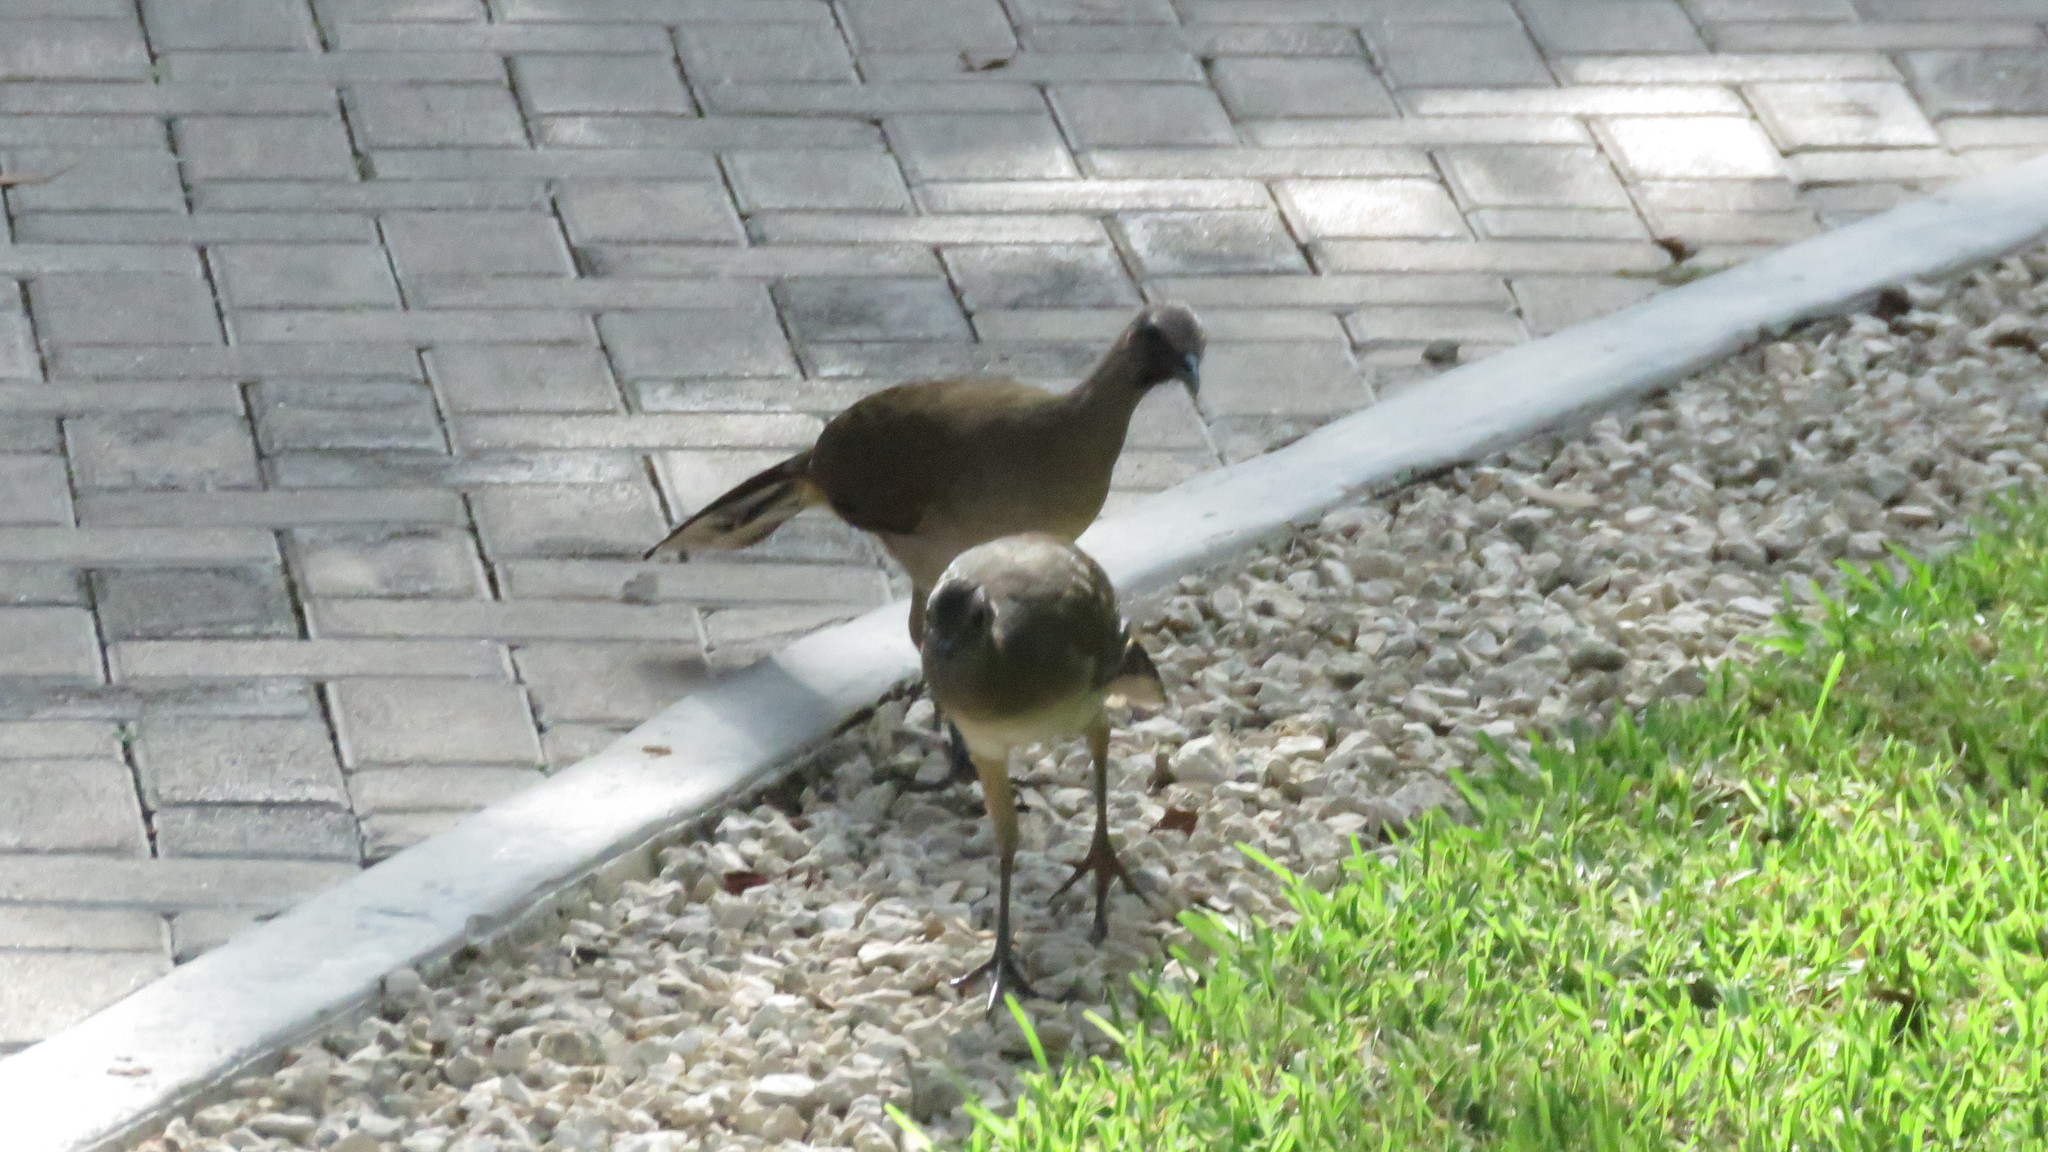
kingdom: Animalia
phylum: Chordata
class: Aves
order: Galliformes
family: Cracidae
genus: Ortalis
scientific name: Ortalis vetula
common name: Plain chachalaca
